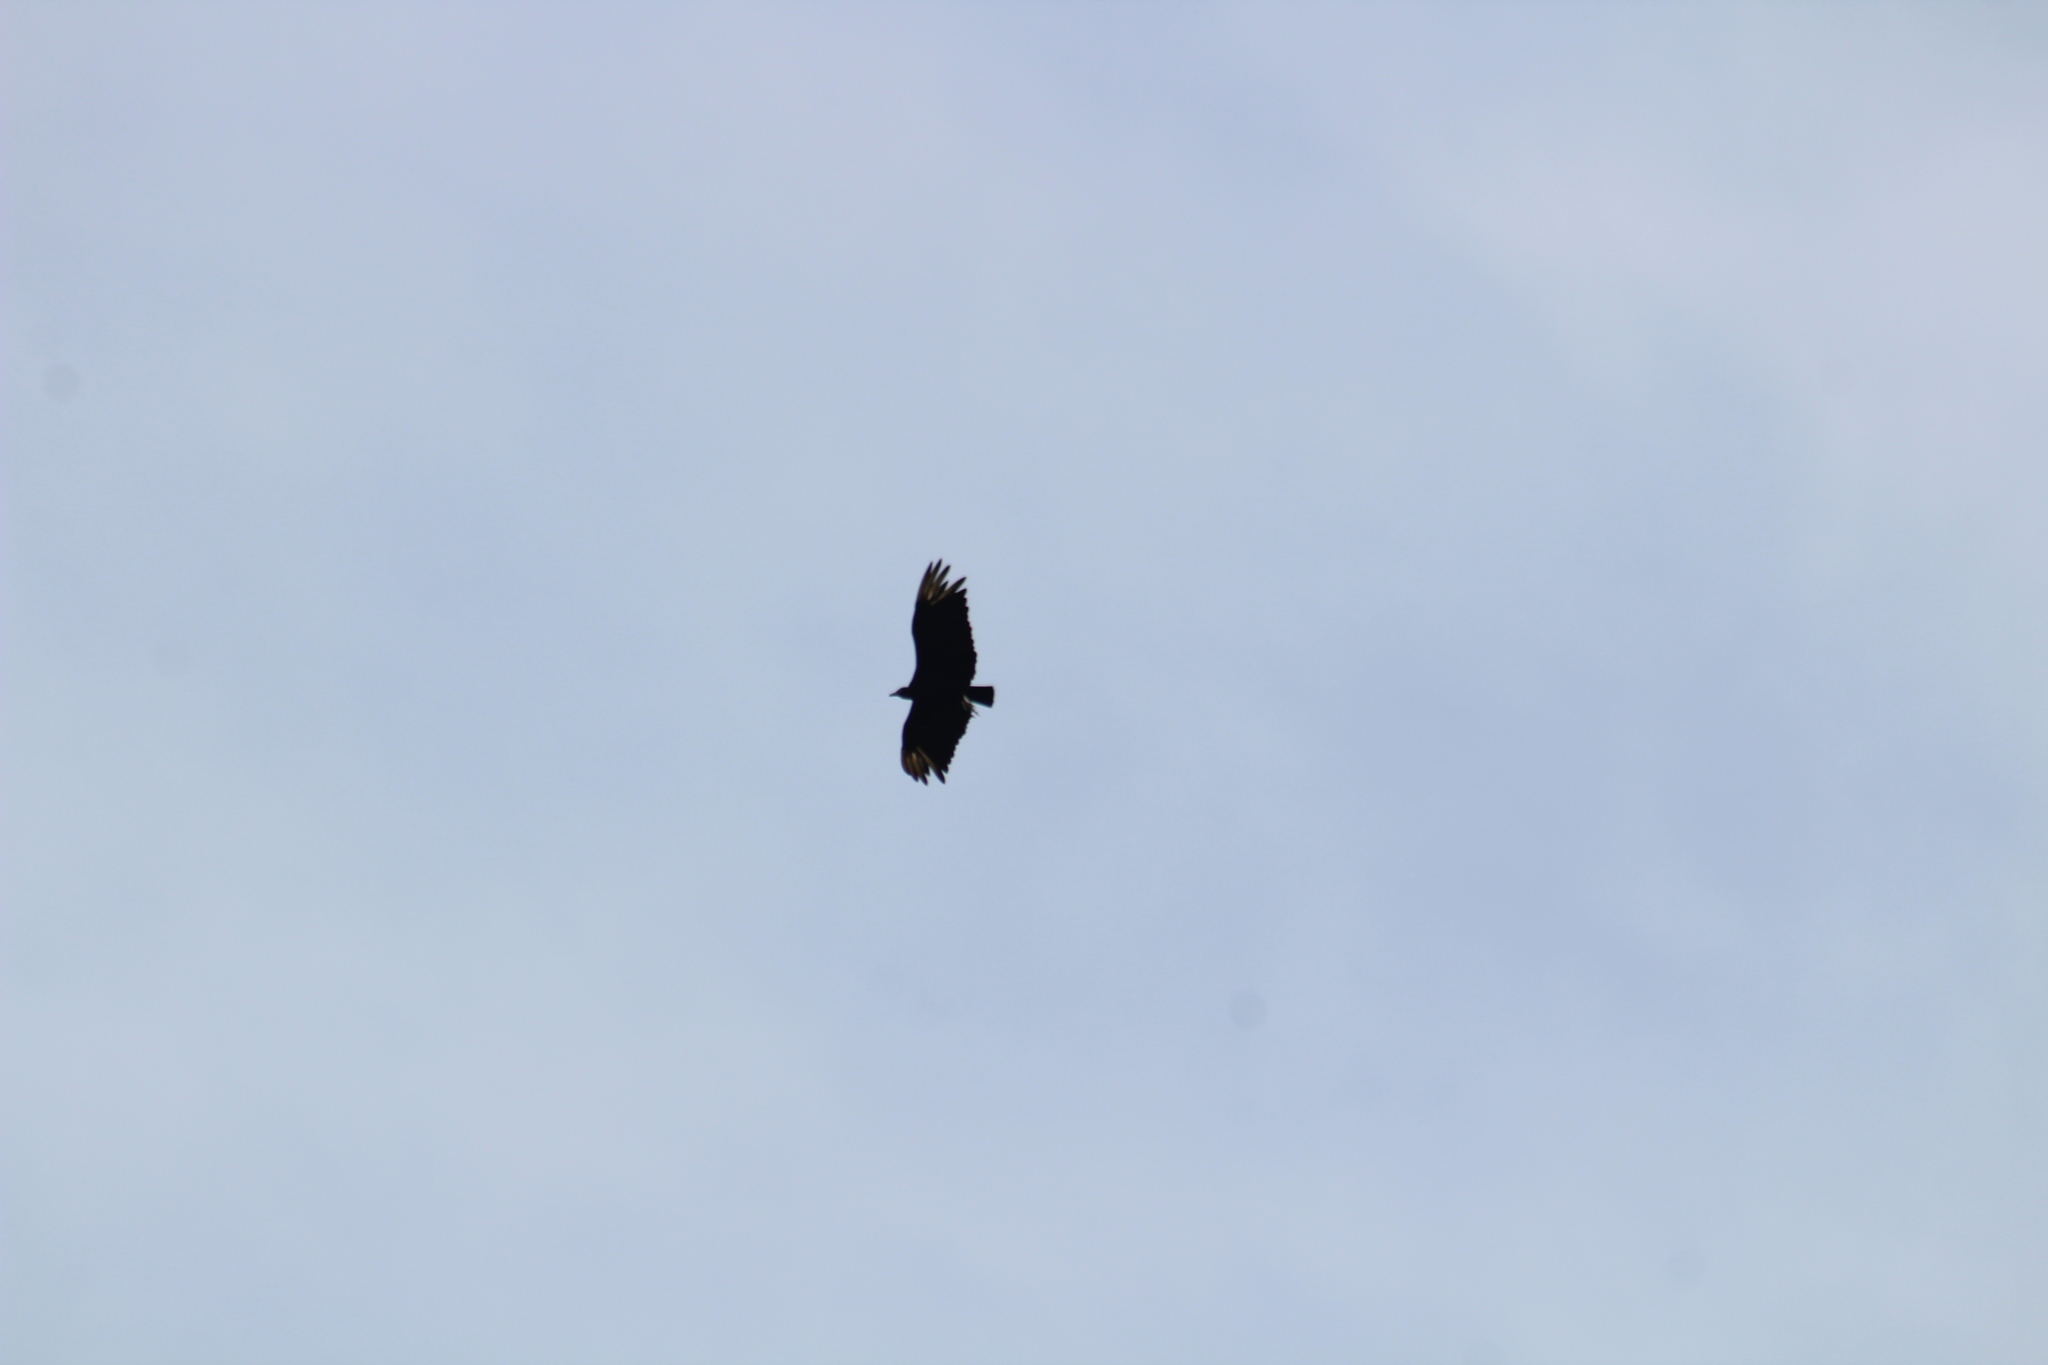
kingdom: Animalia
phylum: Chordata
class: Aves
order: Accipitriformes
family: Cathartidae
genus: Coragyps
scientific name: Coragyps atratus
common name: Black vulture
